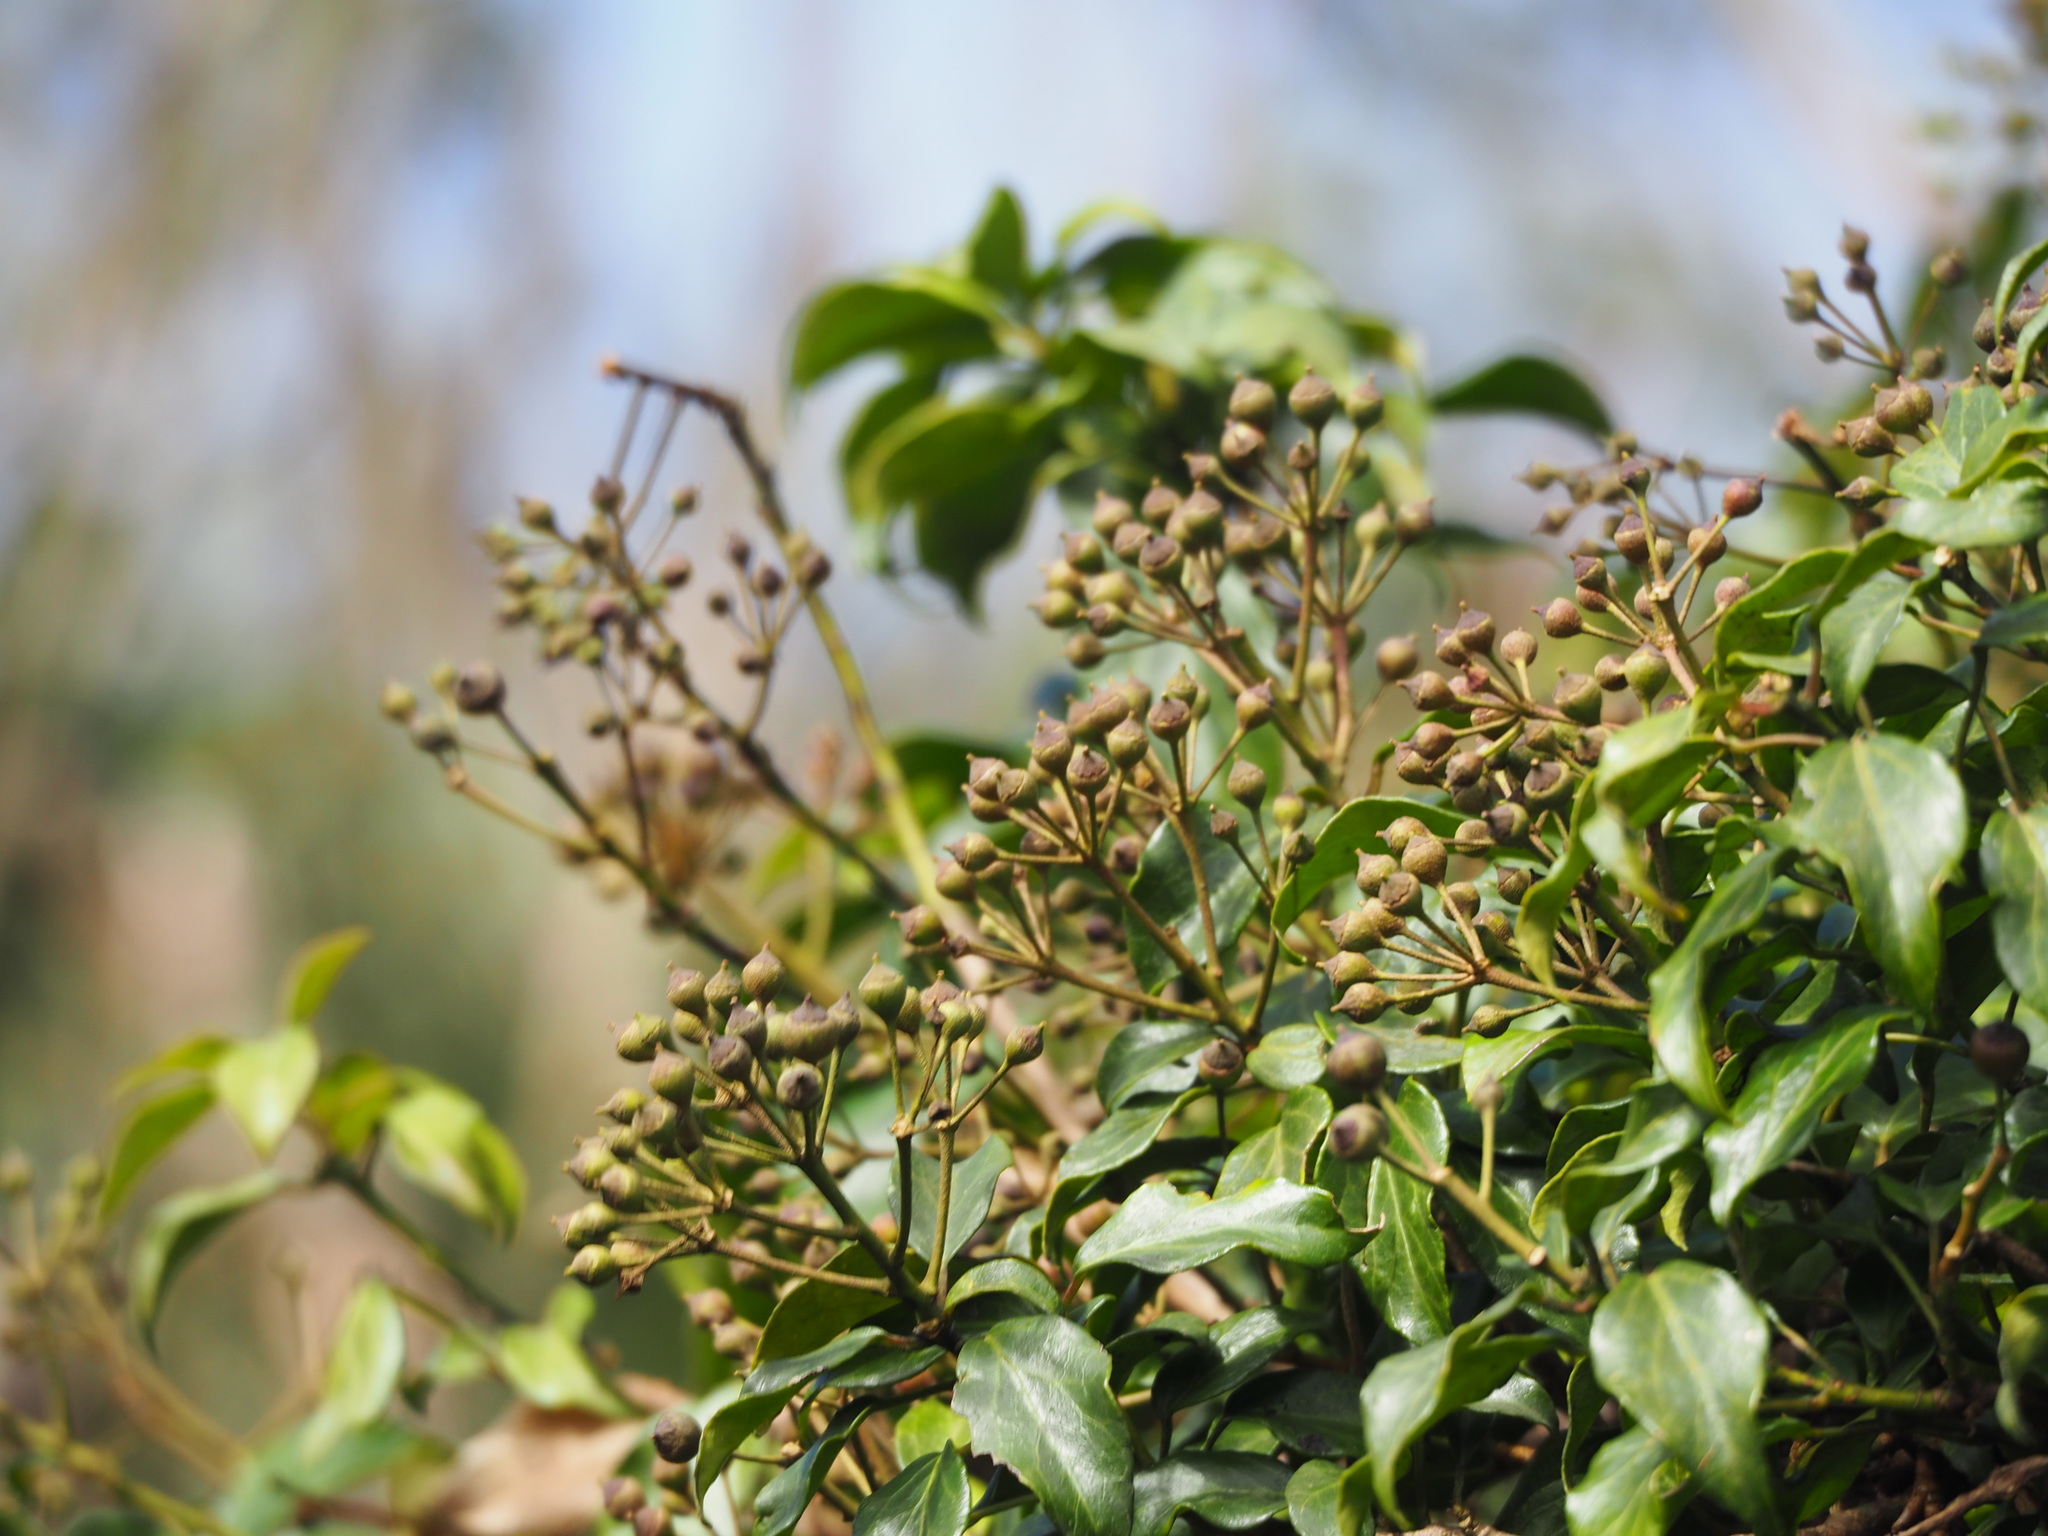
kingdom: Plantae
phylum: Tracheophyta
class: Magnoliopsida
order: Apiales
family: Araliaceae
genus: Hedera
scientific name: Hedera rhombea
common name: Japanese ivy
